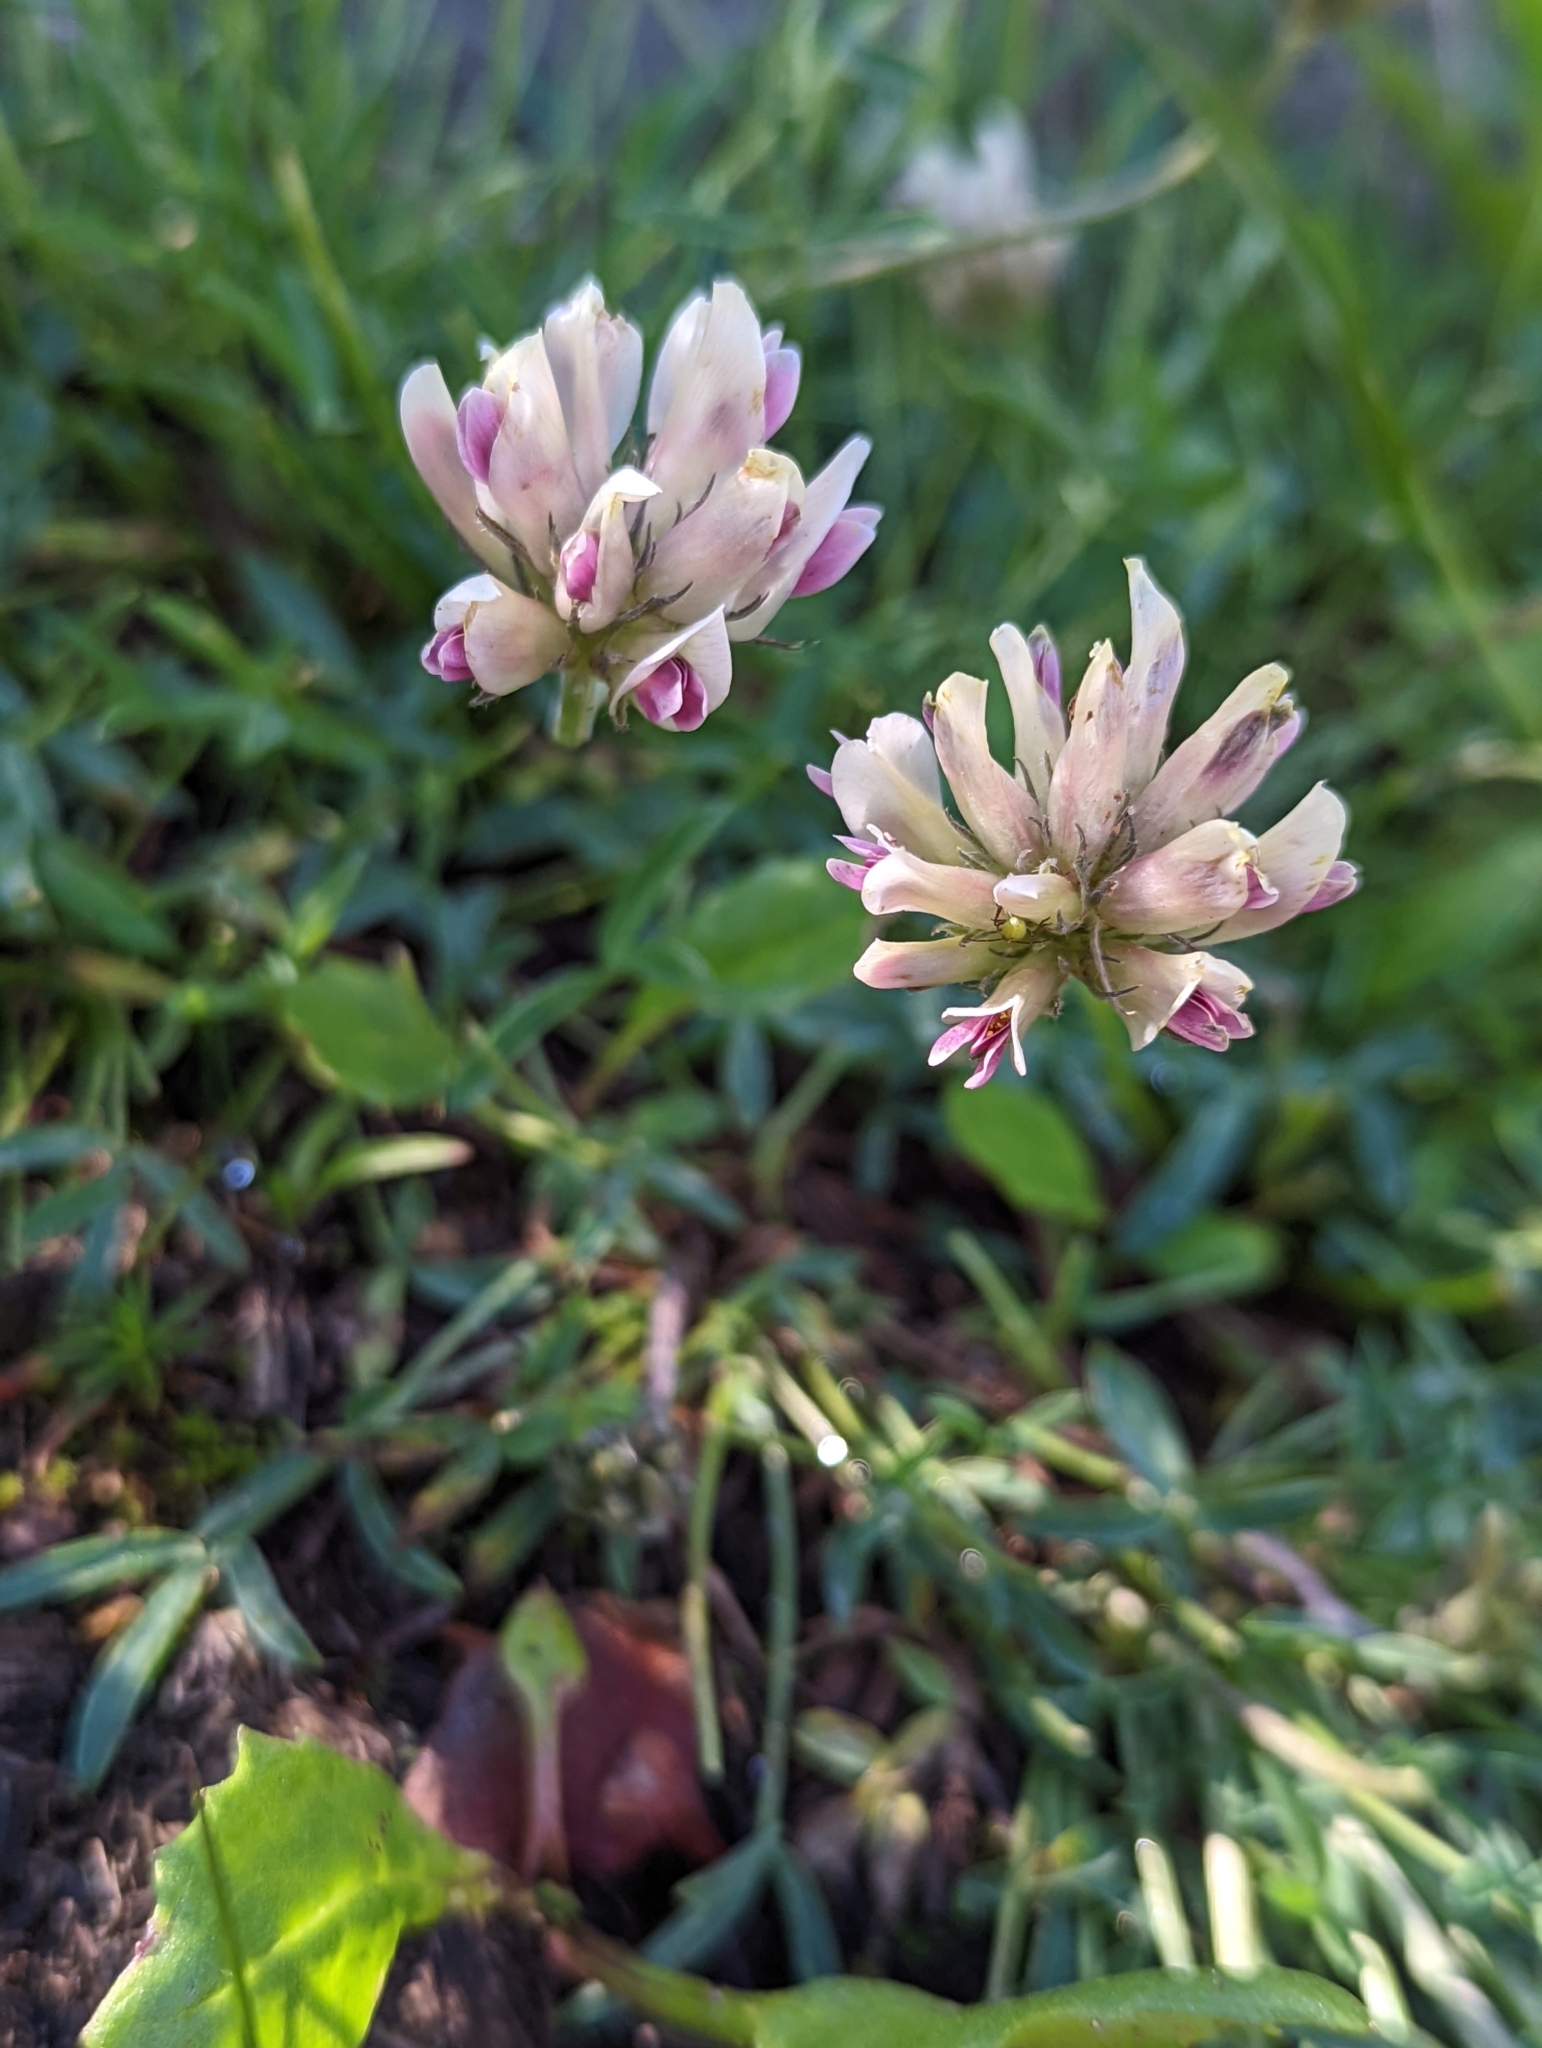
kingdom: Plantae
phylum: Tracheophyta
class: Magnoliopsida
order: Fabales
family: Fabaceae
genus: Trifolium
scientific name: Trifolium dasyphyllum
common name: Whip-root clover
